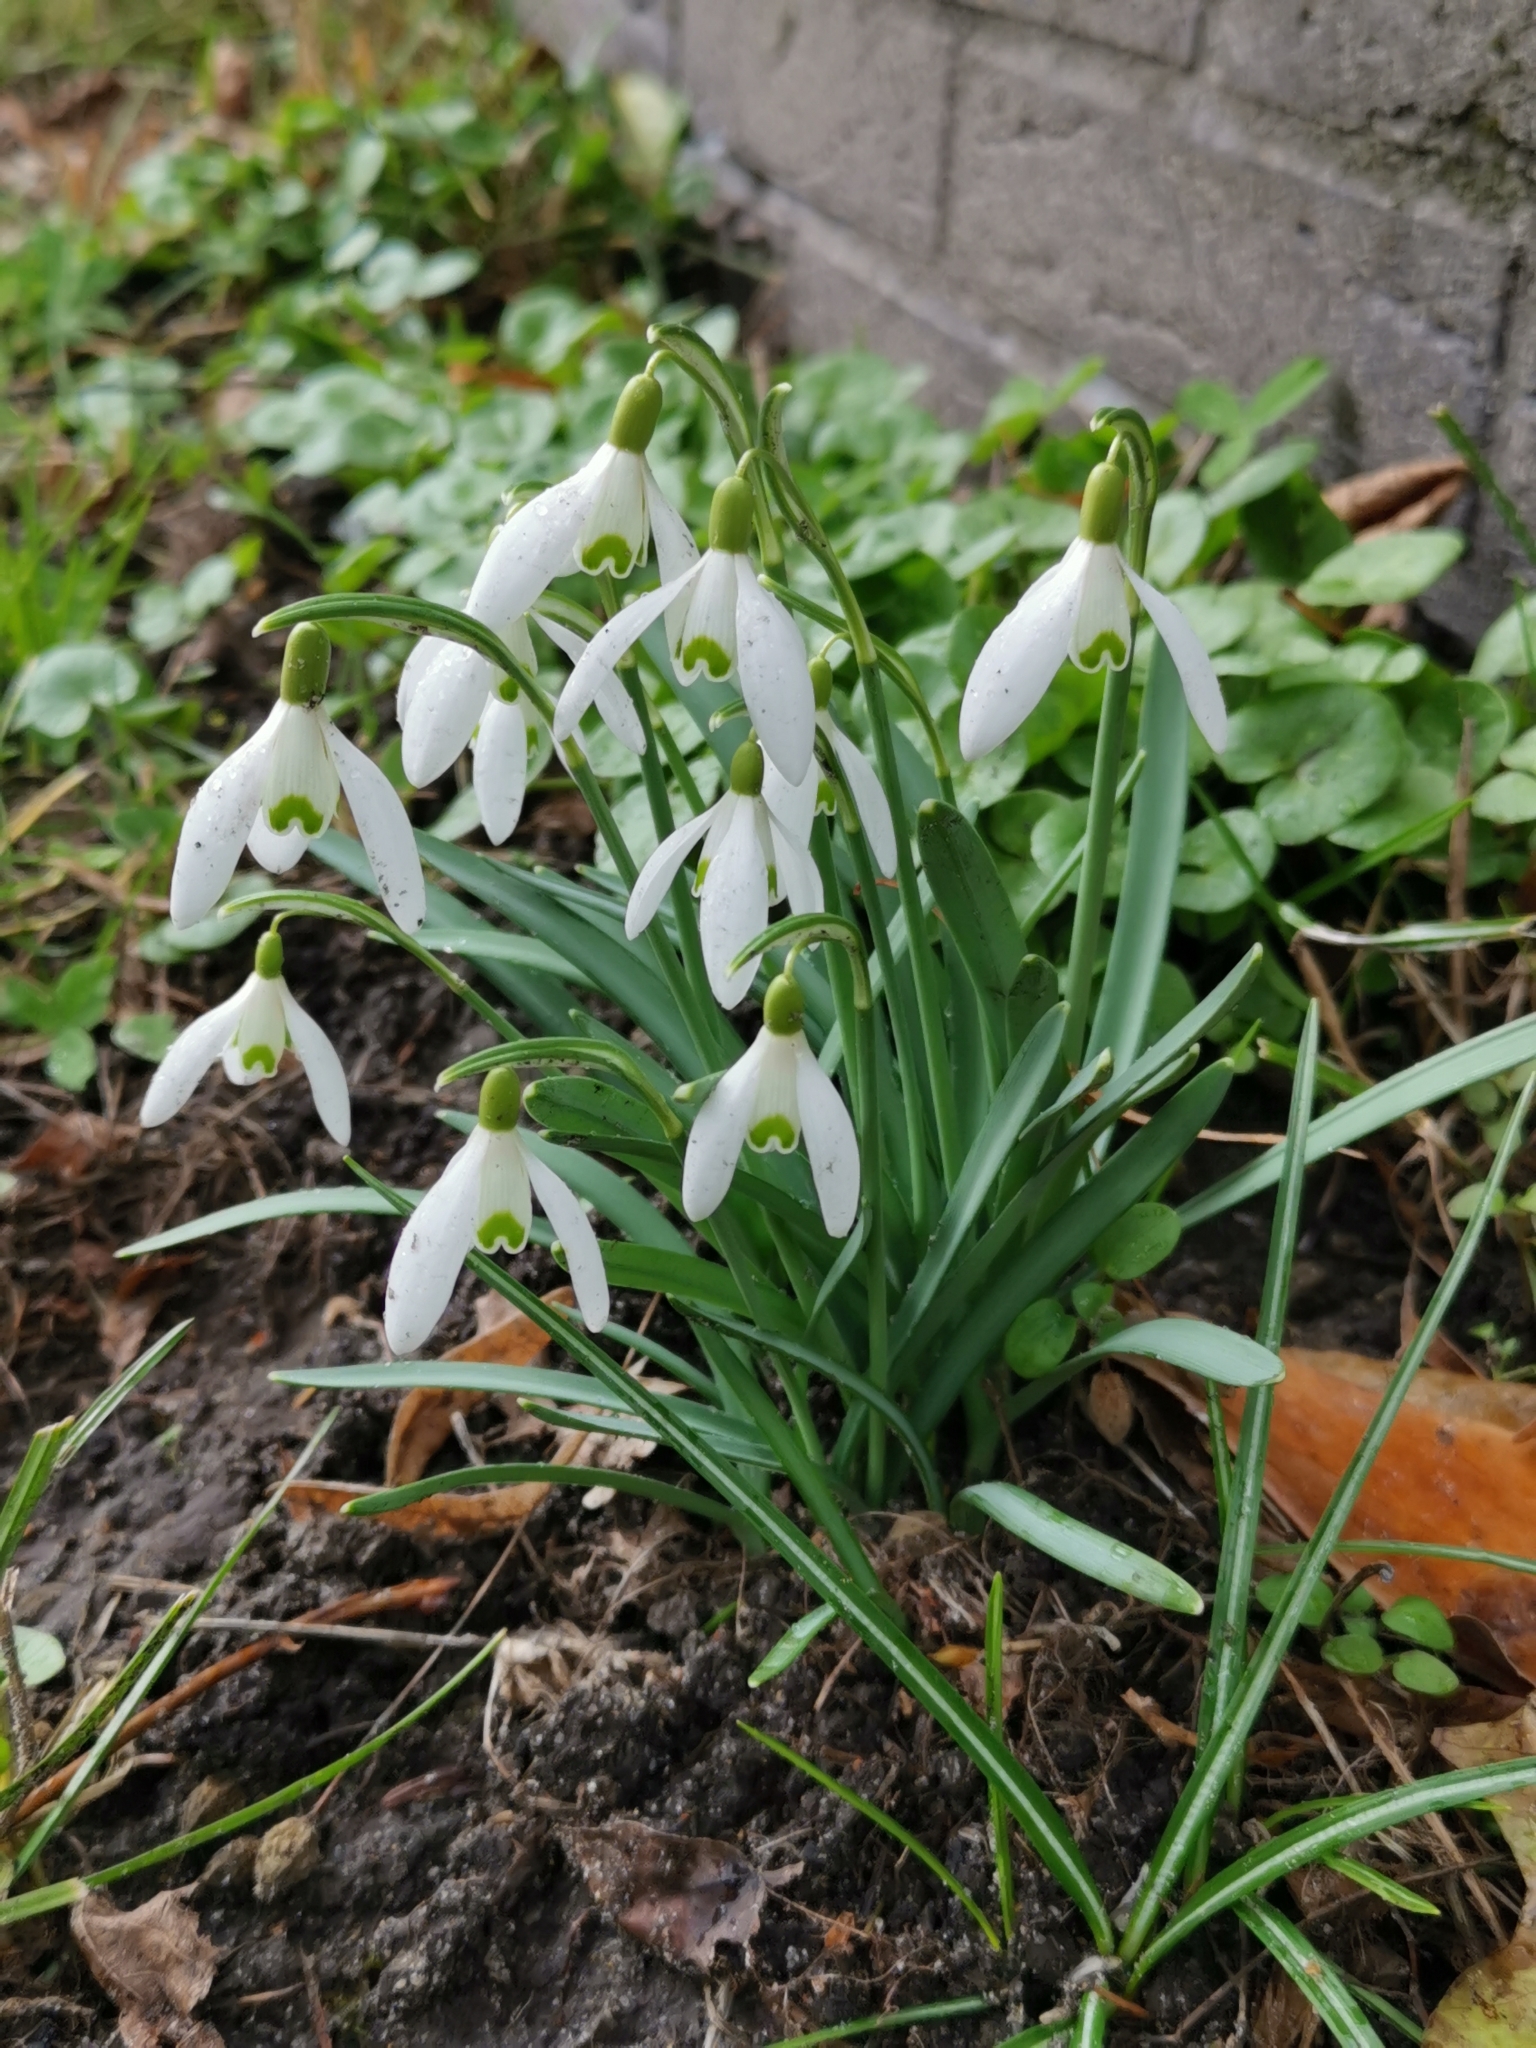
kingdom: Plantae
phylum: Tracheophyta
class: Liliopsida
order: Asparagales
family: Amaryllidaceae
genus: Galanthus
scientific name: Galanthus nivalis
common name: Snowdrop
